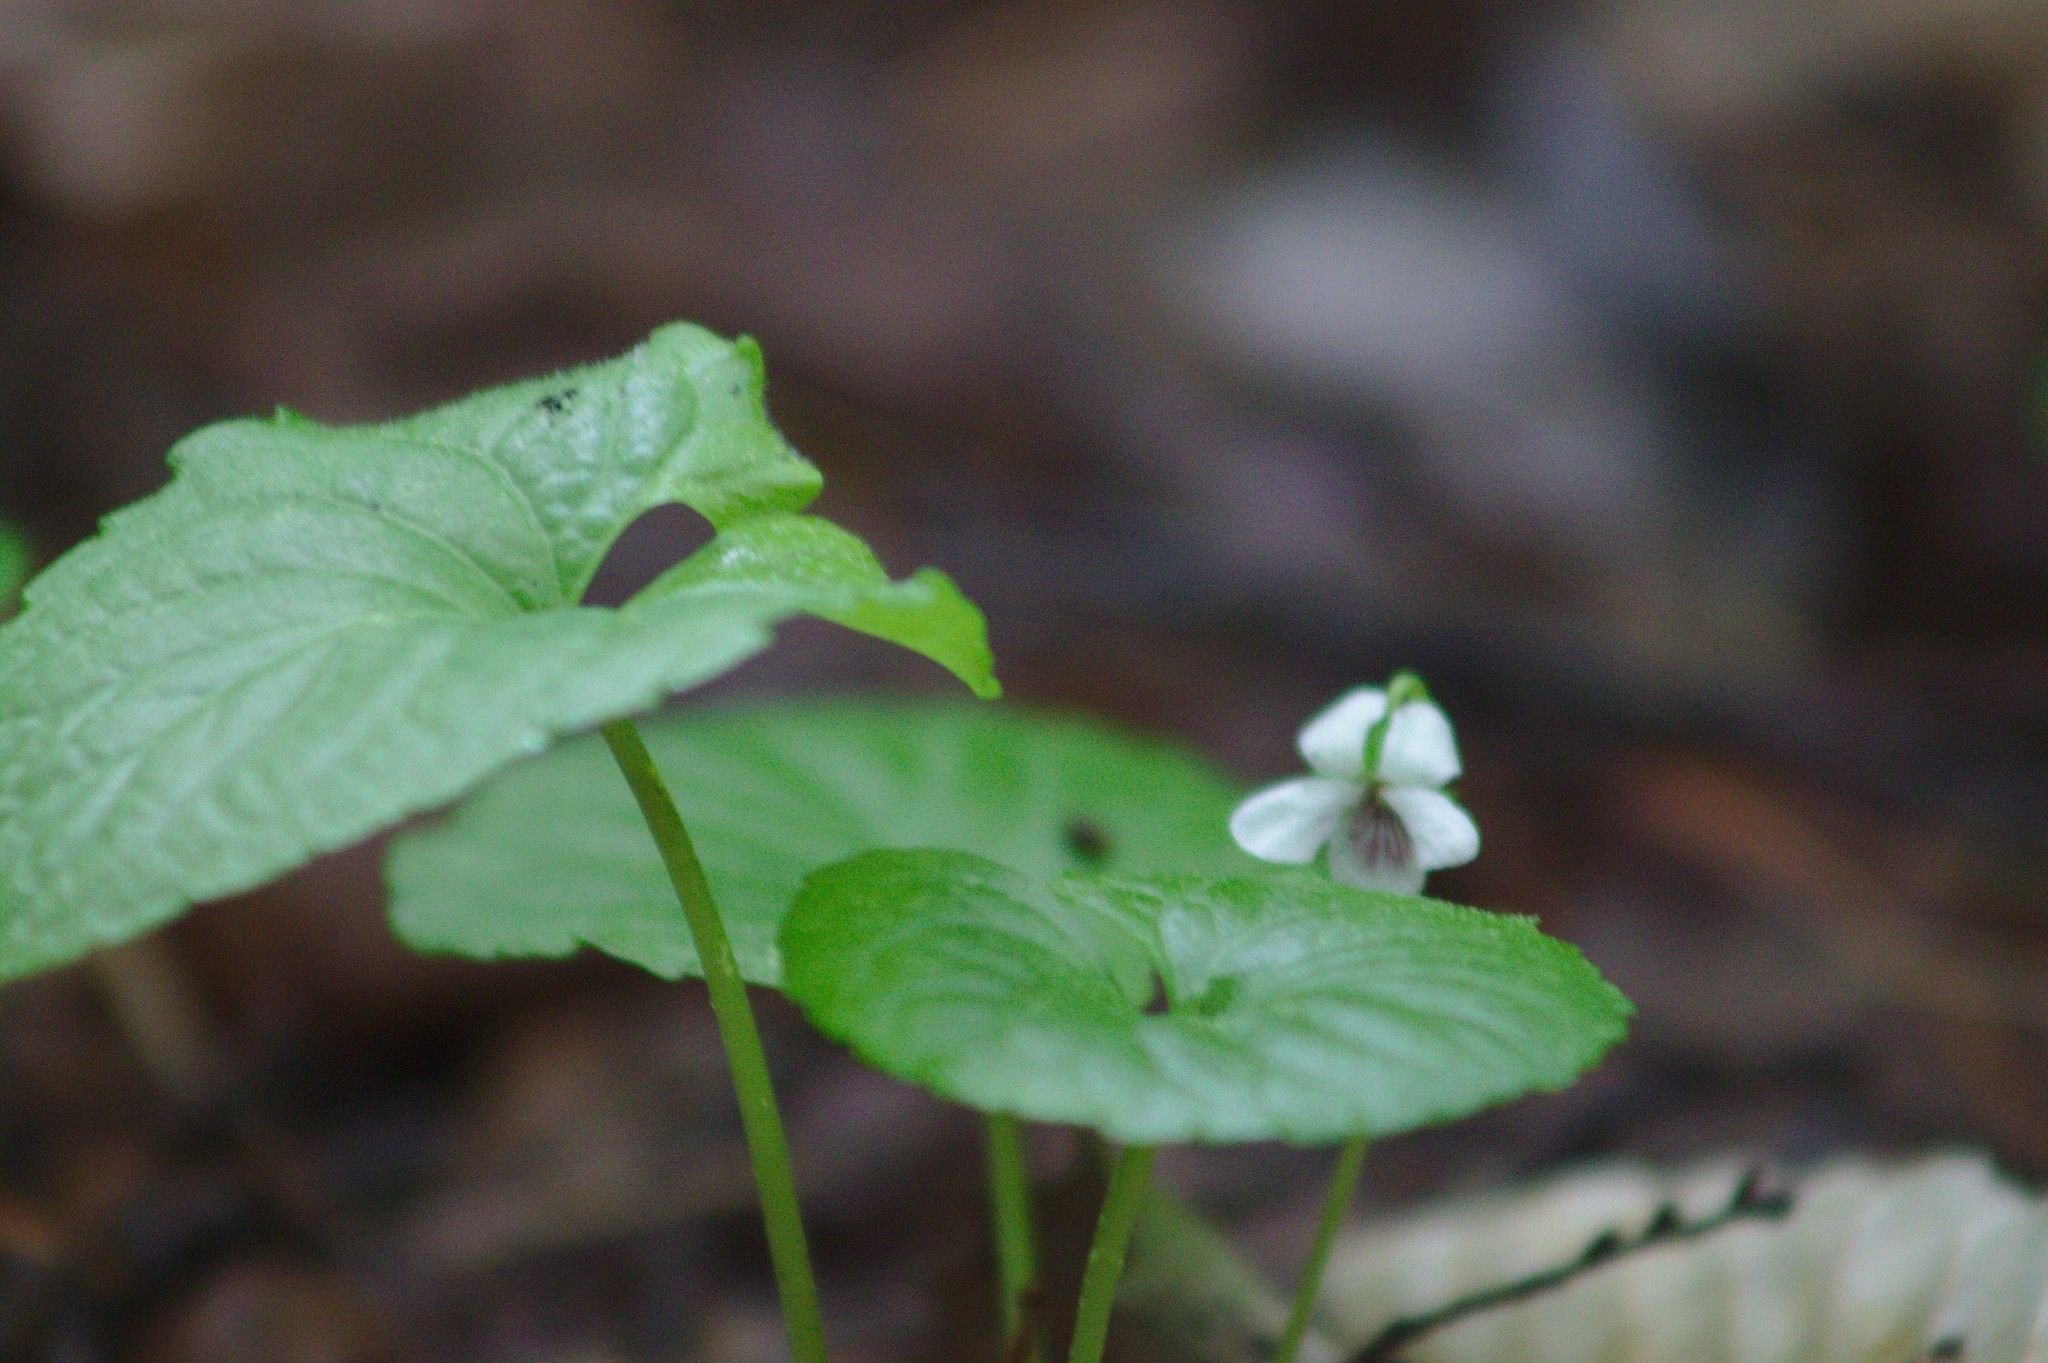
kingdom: Plantae
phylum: Tracheophyta
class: Magnoliopsida
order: Malpighiales
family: Violaceae
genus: Viola
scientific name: Viola renifolia
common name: Kidney-leaf violet
